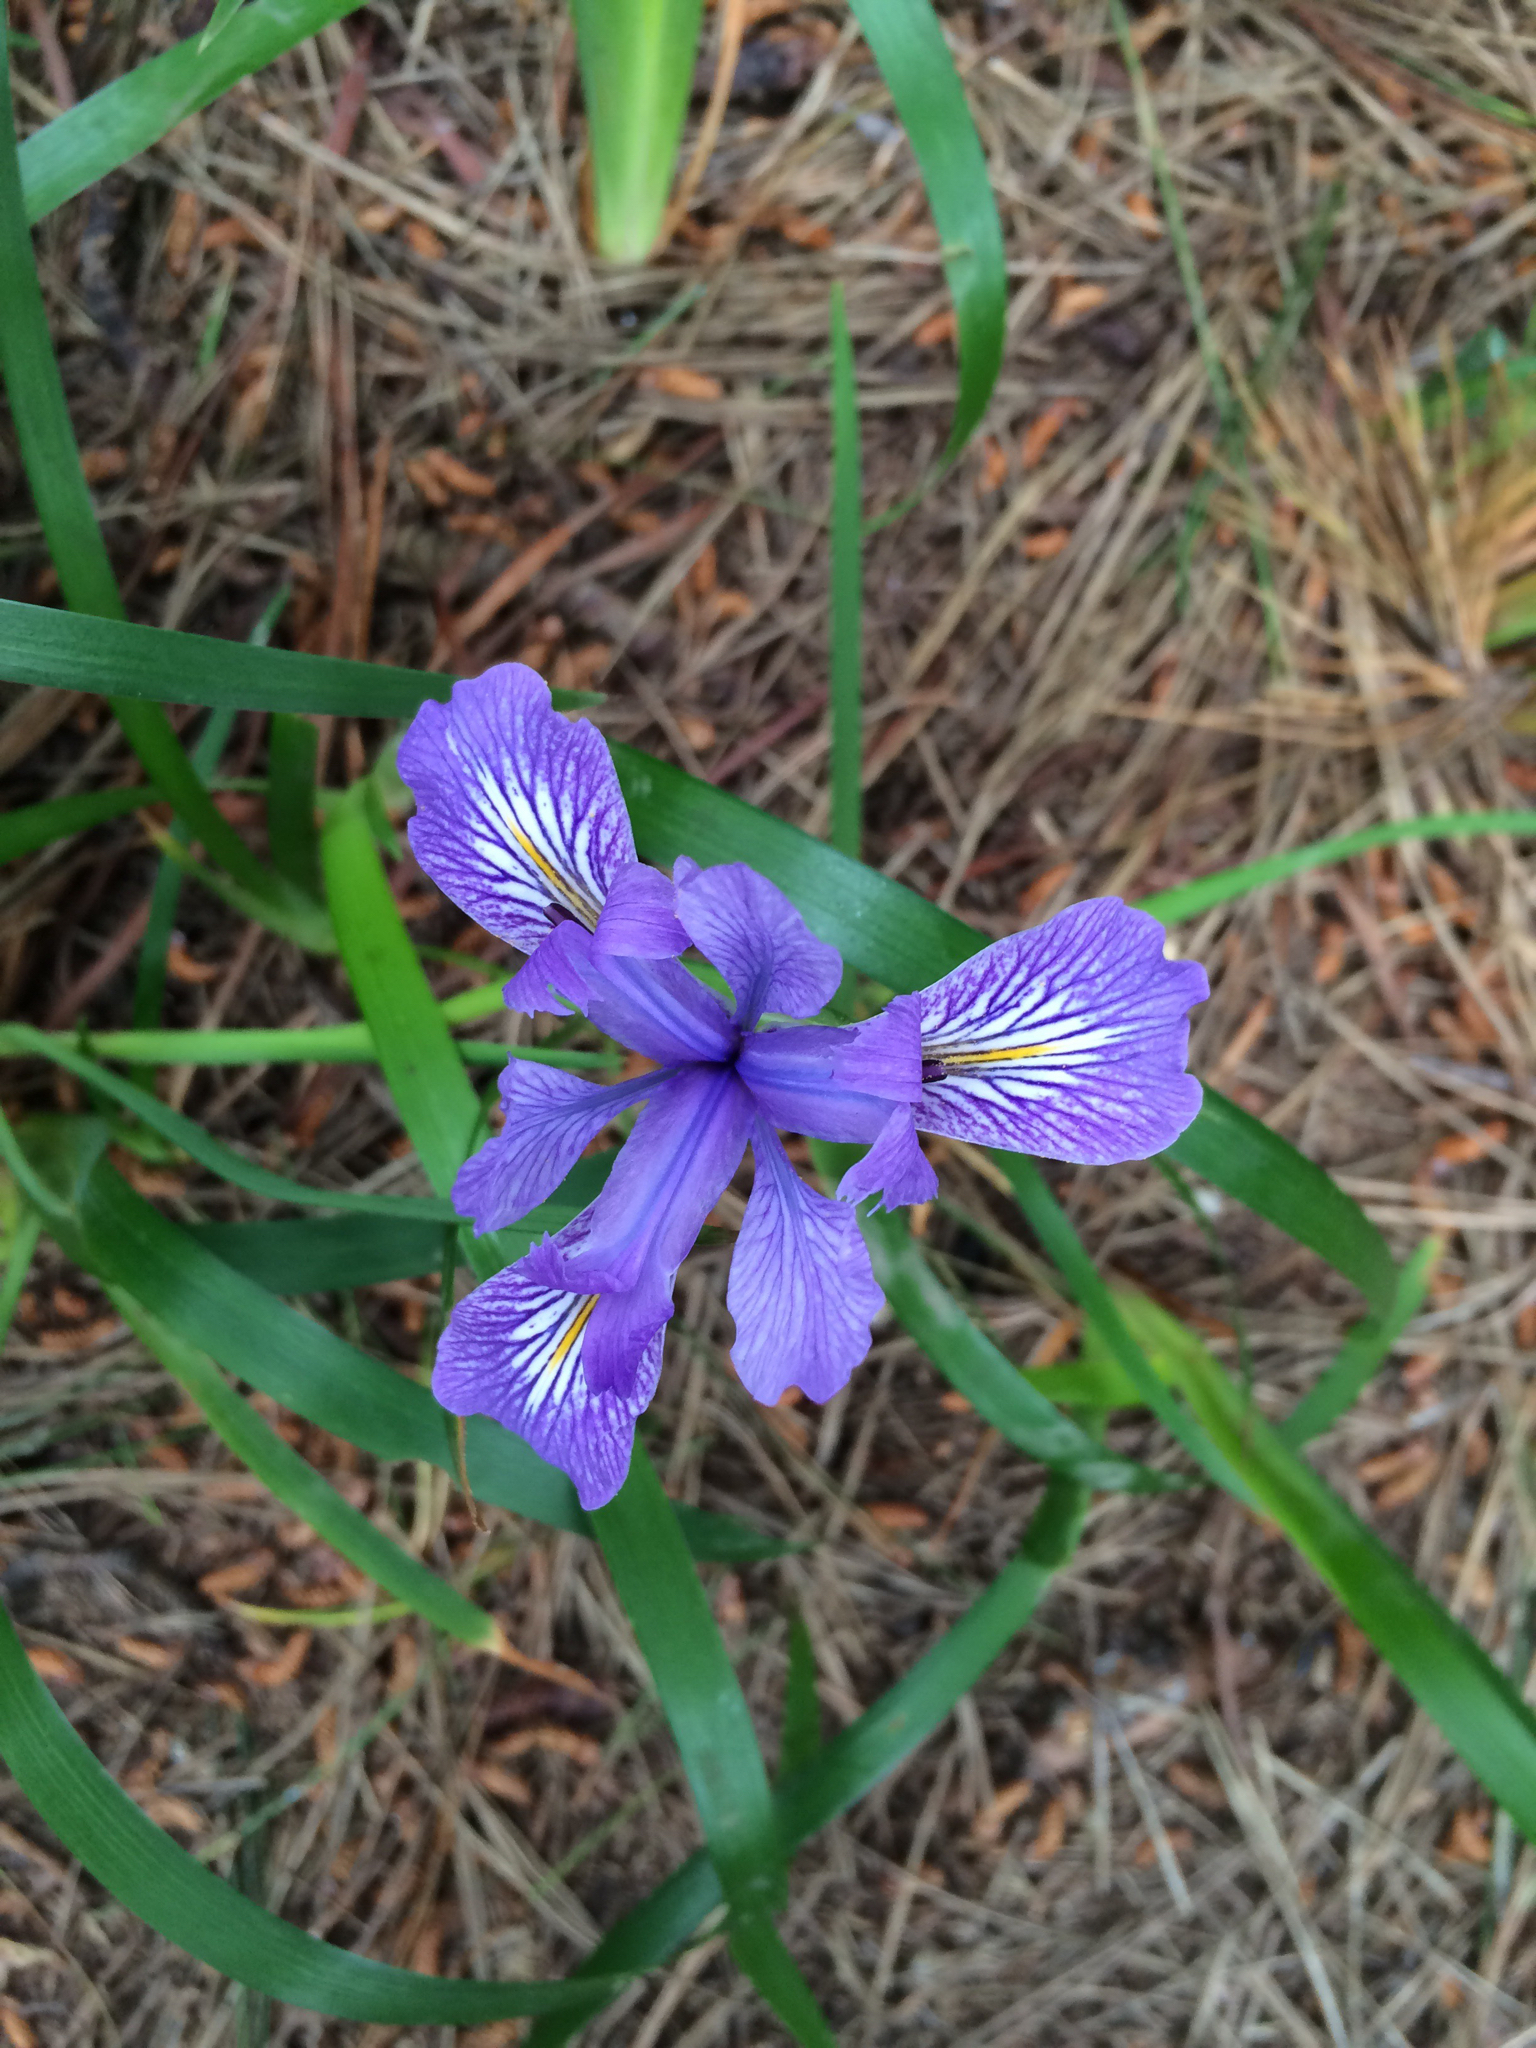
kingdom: Plantae
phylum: Tracheophyta
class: Liliopsida
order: Asparagales
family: Iridaceae
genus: Iris
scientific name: Iris douglasiana
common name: Marin iris
